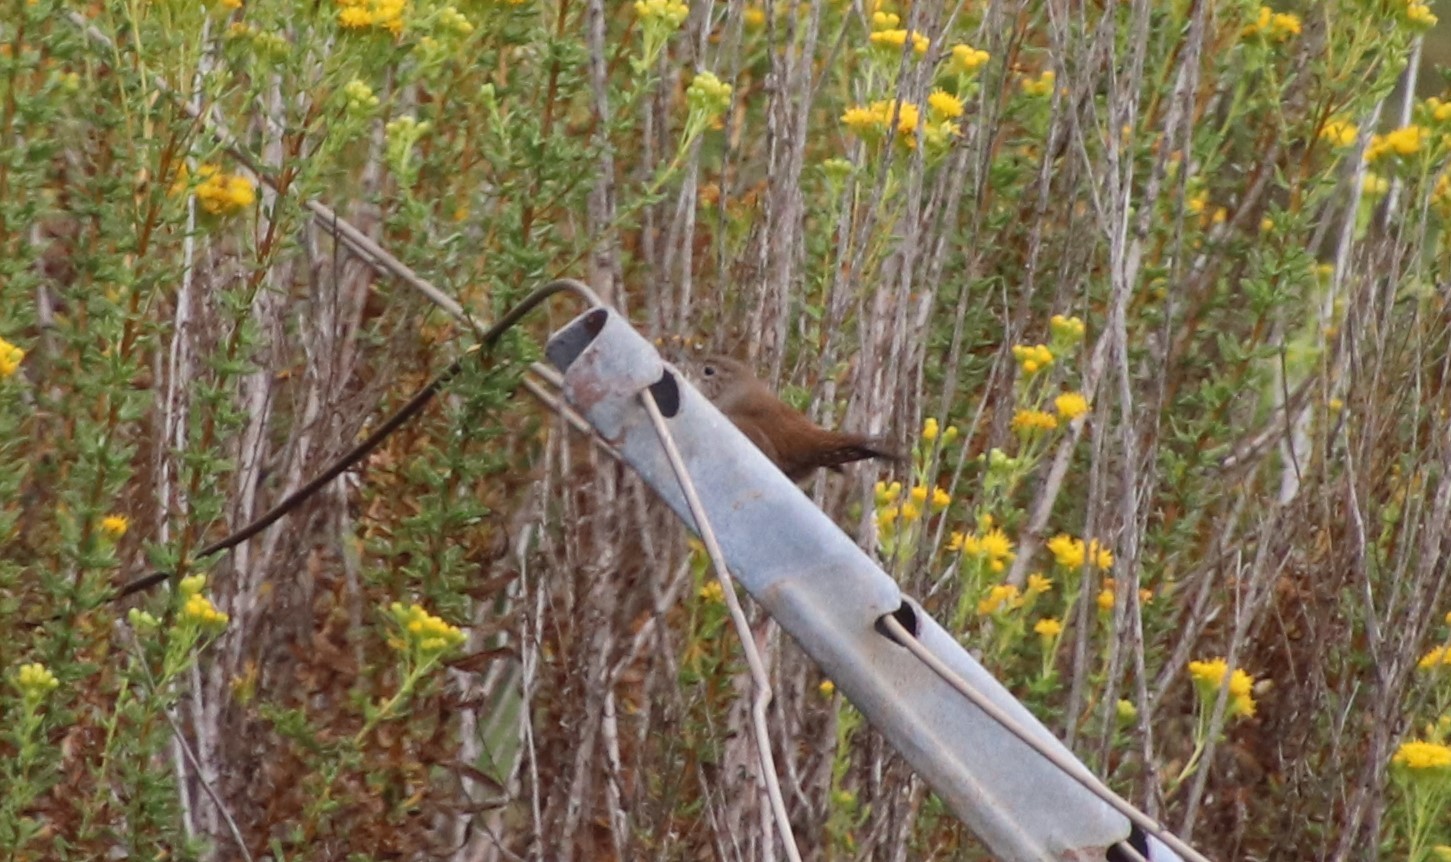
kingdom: Animalia
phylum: Chordata
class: Aves
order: Passeriformes
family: Troglodytidae
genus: Troglodytes
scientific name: Troglodytes aedon
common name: House wren
